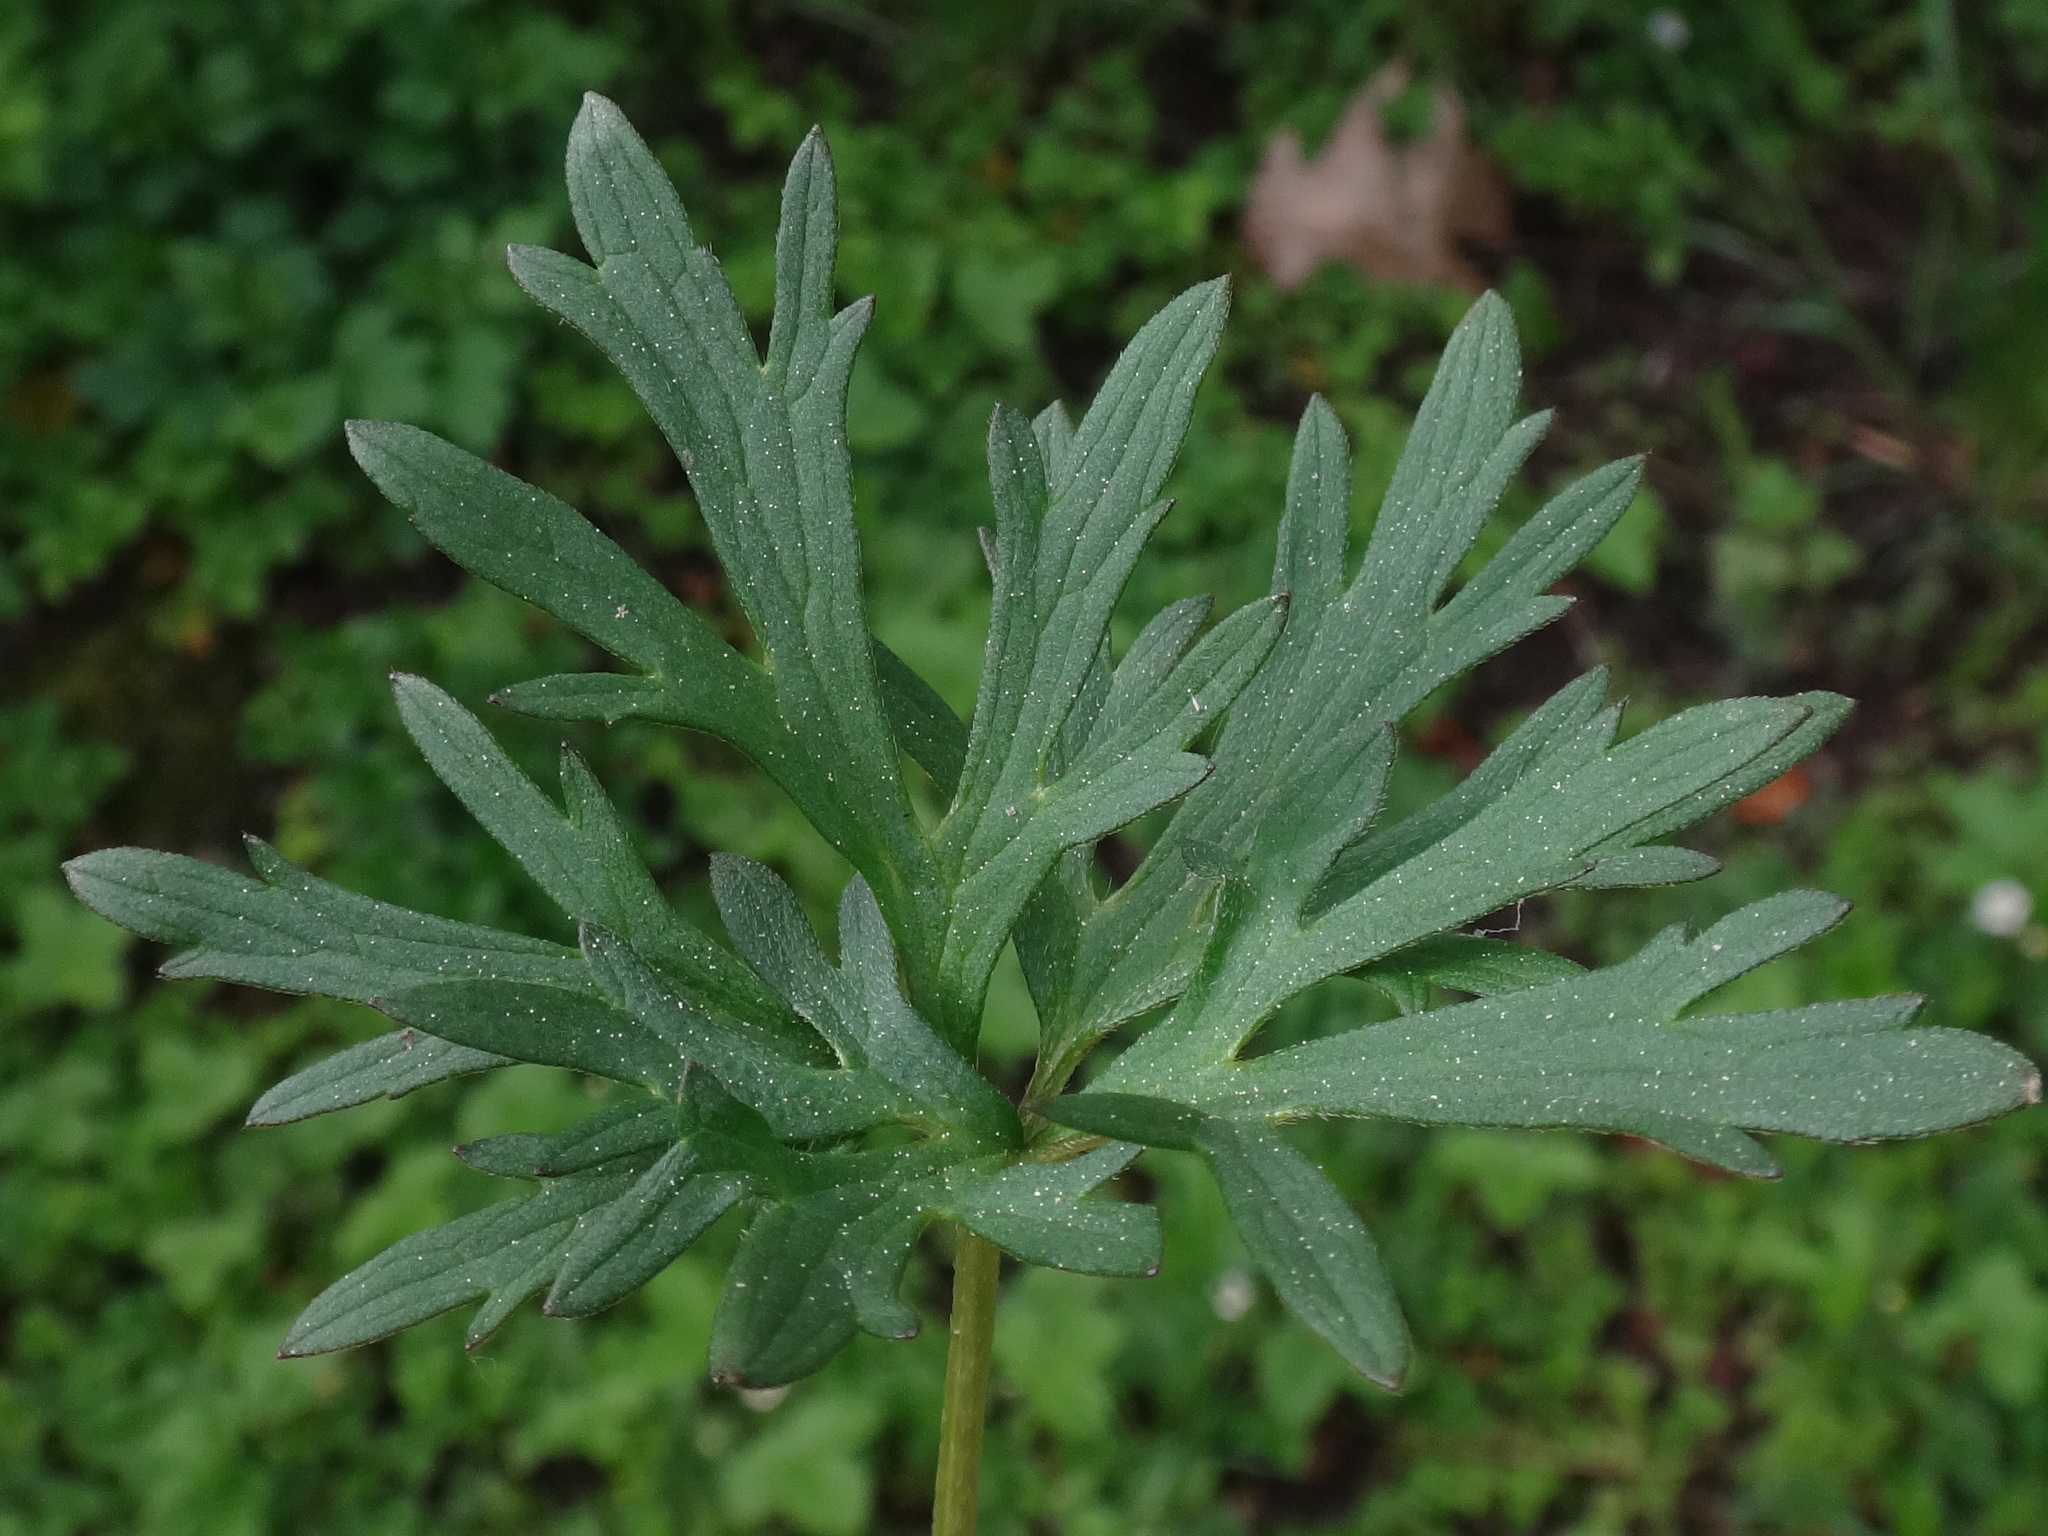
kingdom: Plantae
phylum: Tracheophyta
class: Magnoliopsida
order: Ranunculales
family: Ranunculaceae
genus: Ranunculus
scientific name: Ranunculus acris
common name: Meadow buttercup
